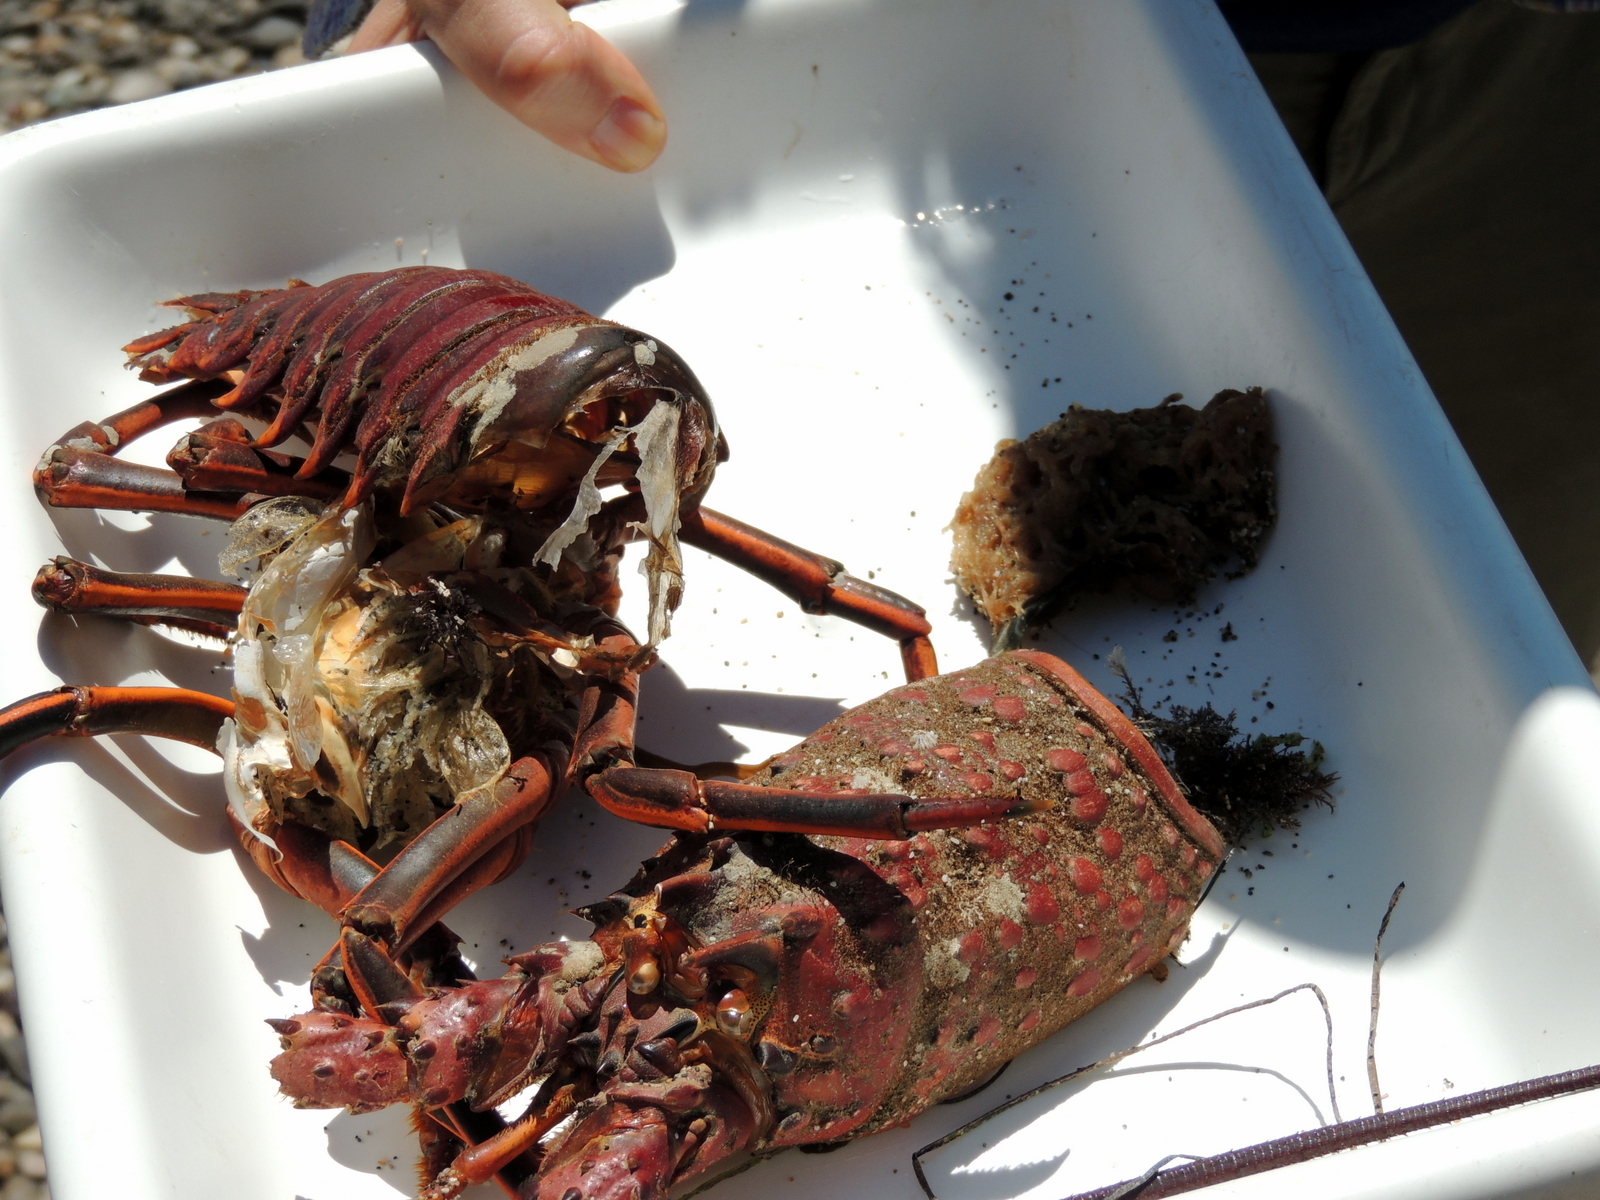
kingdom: Animalia
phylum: Arthropoda
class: Malacostraca
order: Decapoda
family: Palinuridae
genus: Panulirus
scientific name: Panulirus interruptus
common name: California spiny lobster
